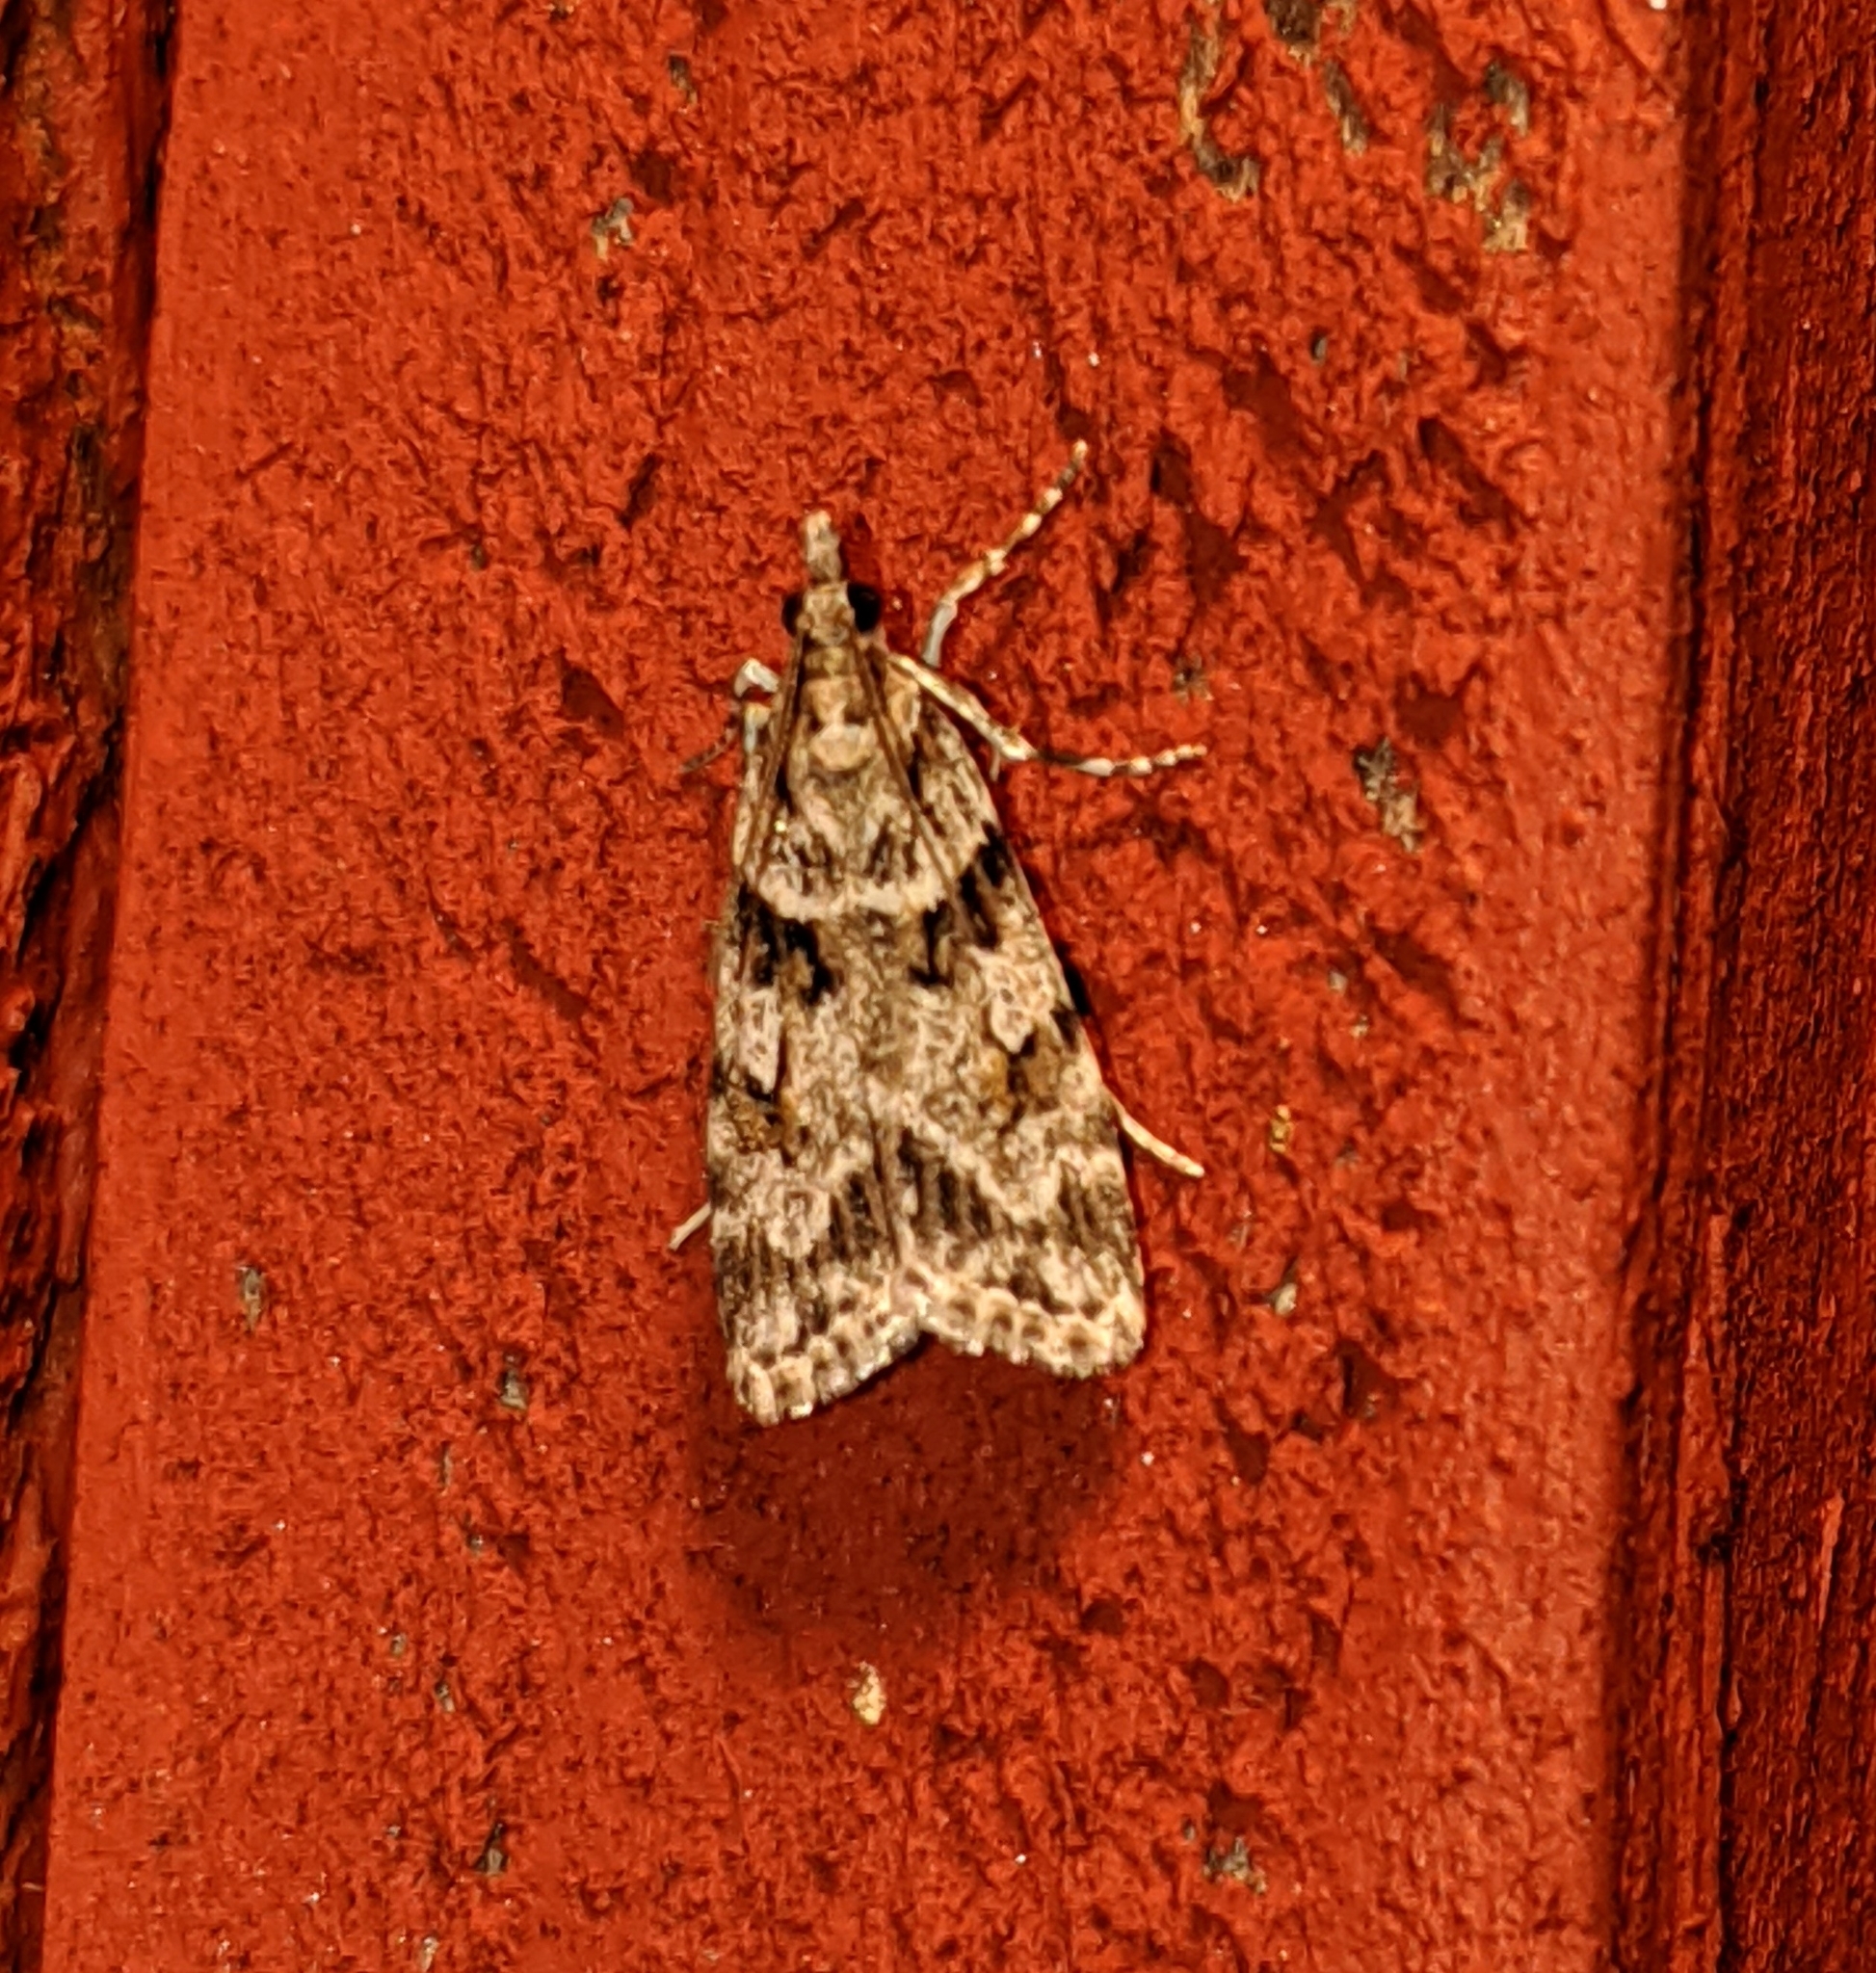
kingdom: Animalia
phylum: Arthropoda
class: Insecta
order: Lepidoptera
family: Crambidae
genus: Scoparia
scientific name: Scoparia biplagialis
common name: Double-striped scoparia moth
